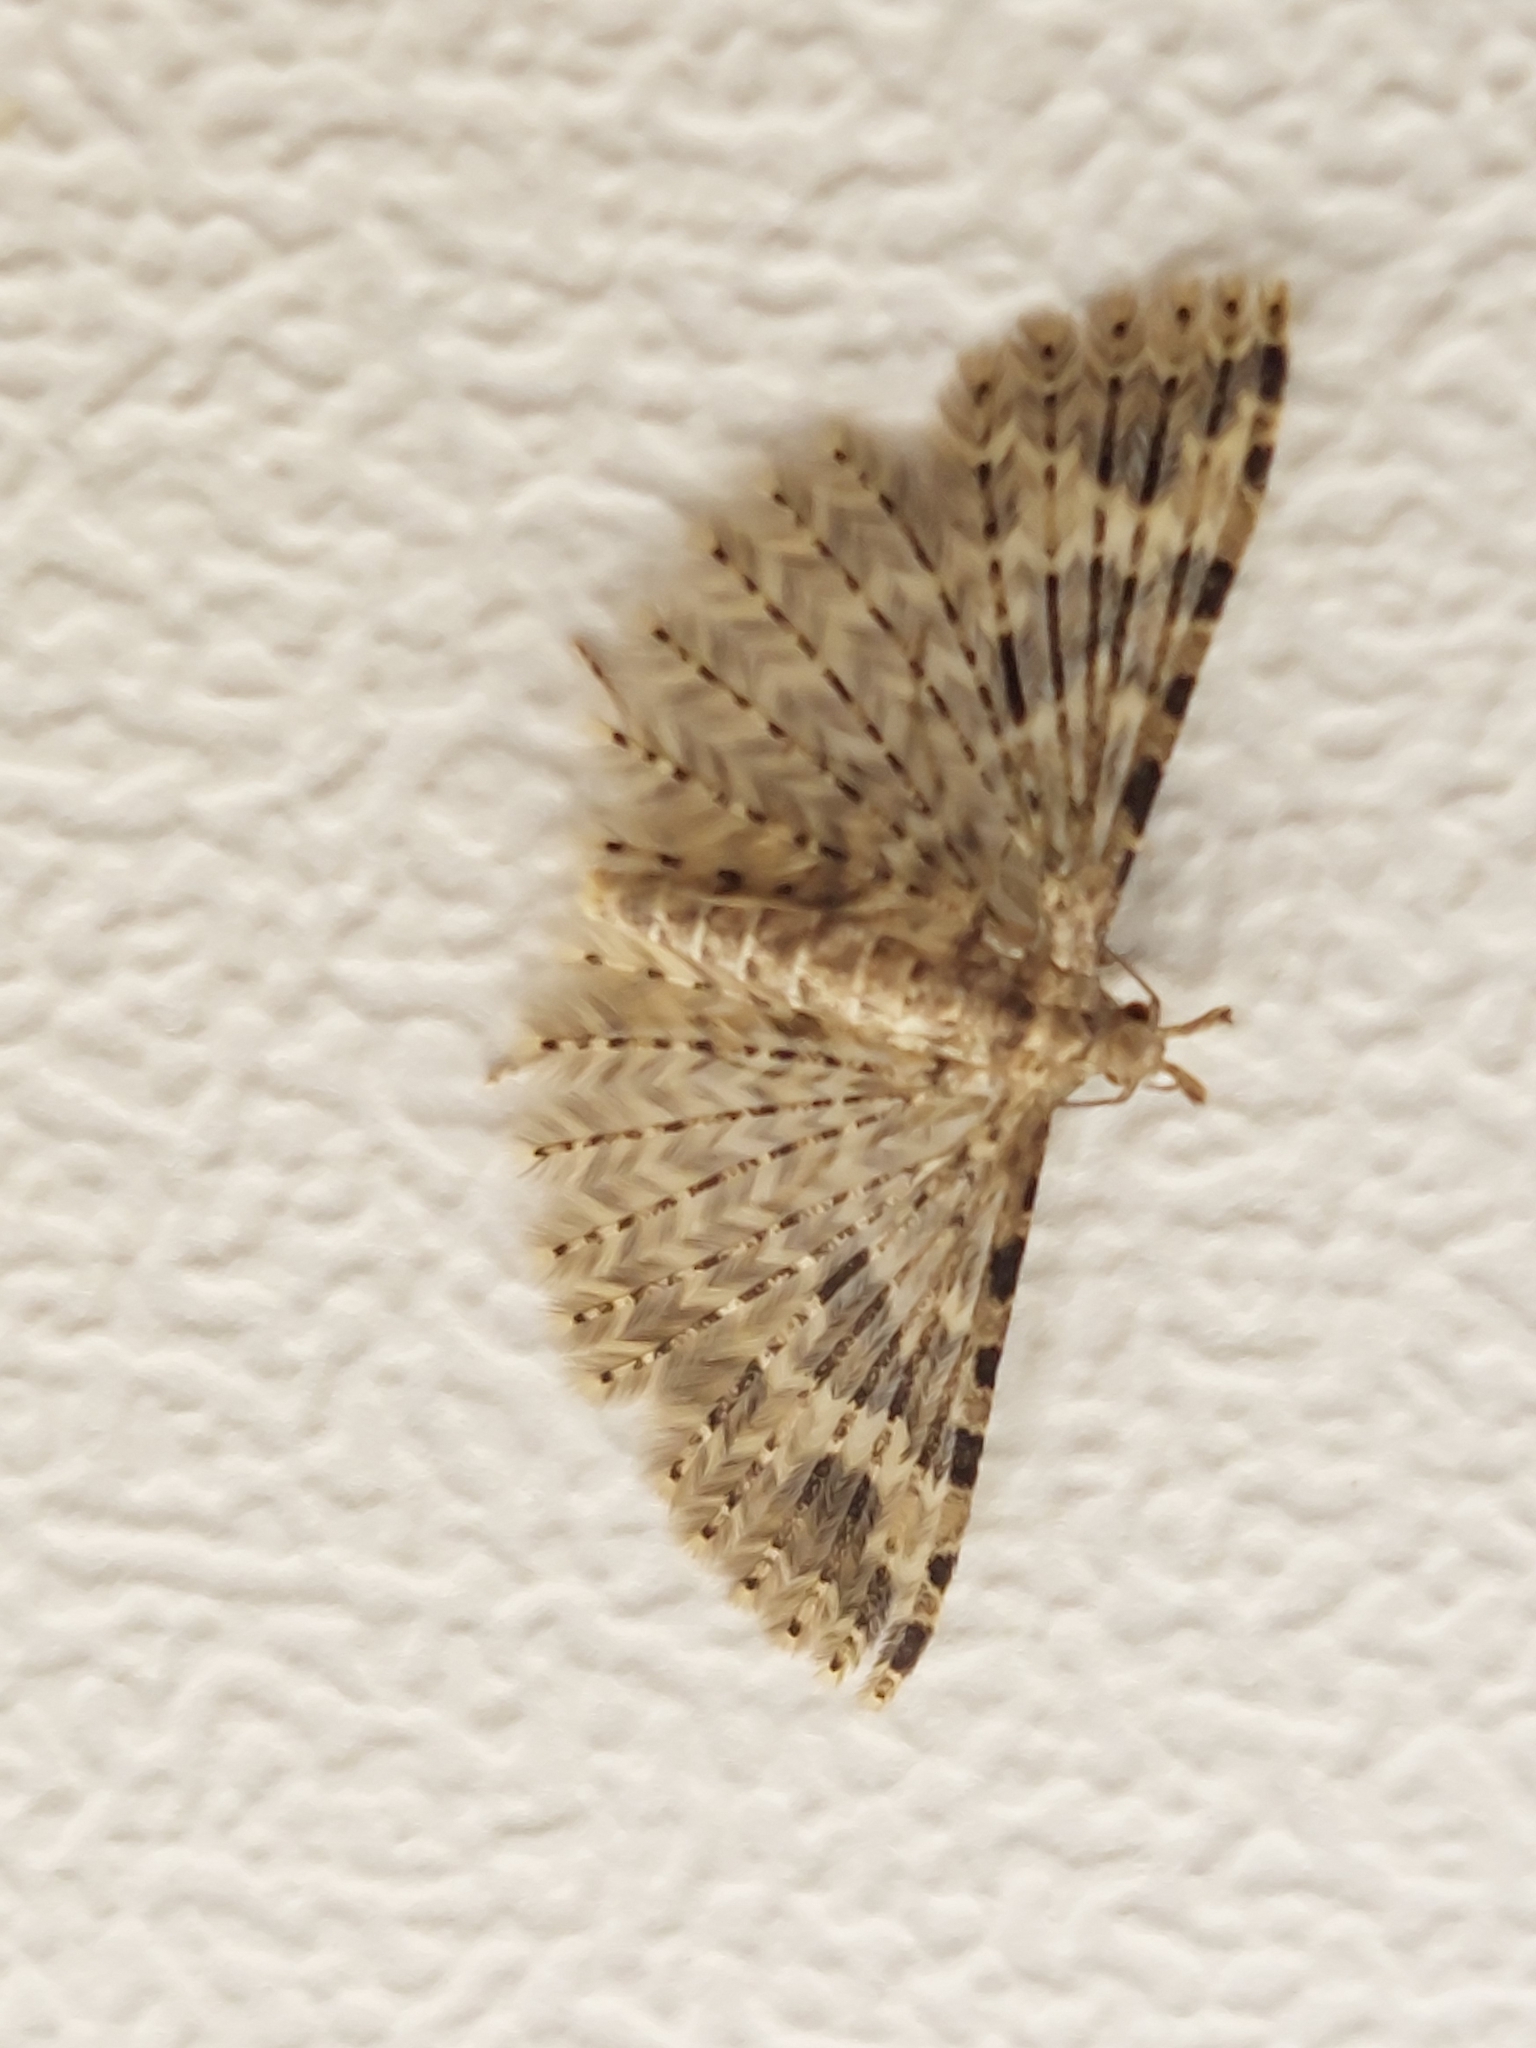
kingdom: Animalia
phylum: Arthropoda
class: Insecta
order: Lepidoptera
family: Alucitidae
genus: Alucita
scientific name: Alucita hexadactyla
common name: Twenty-plume moth
